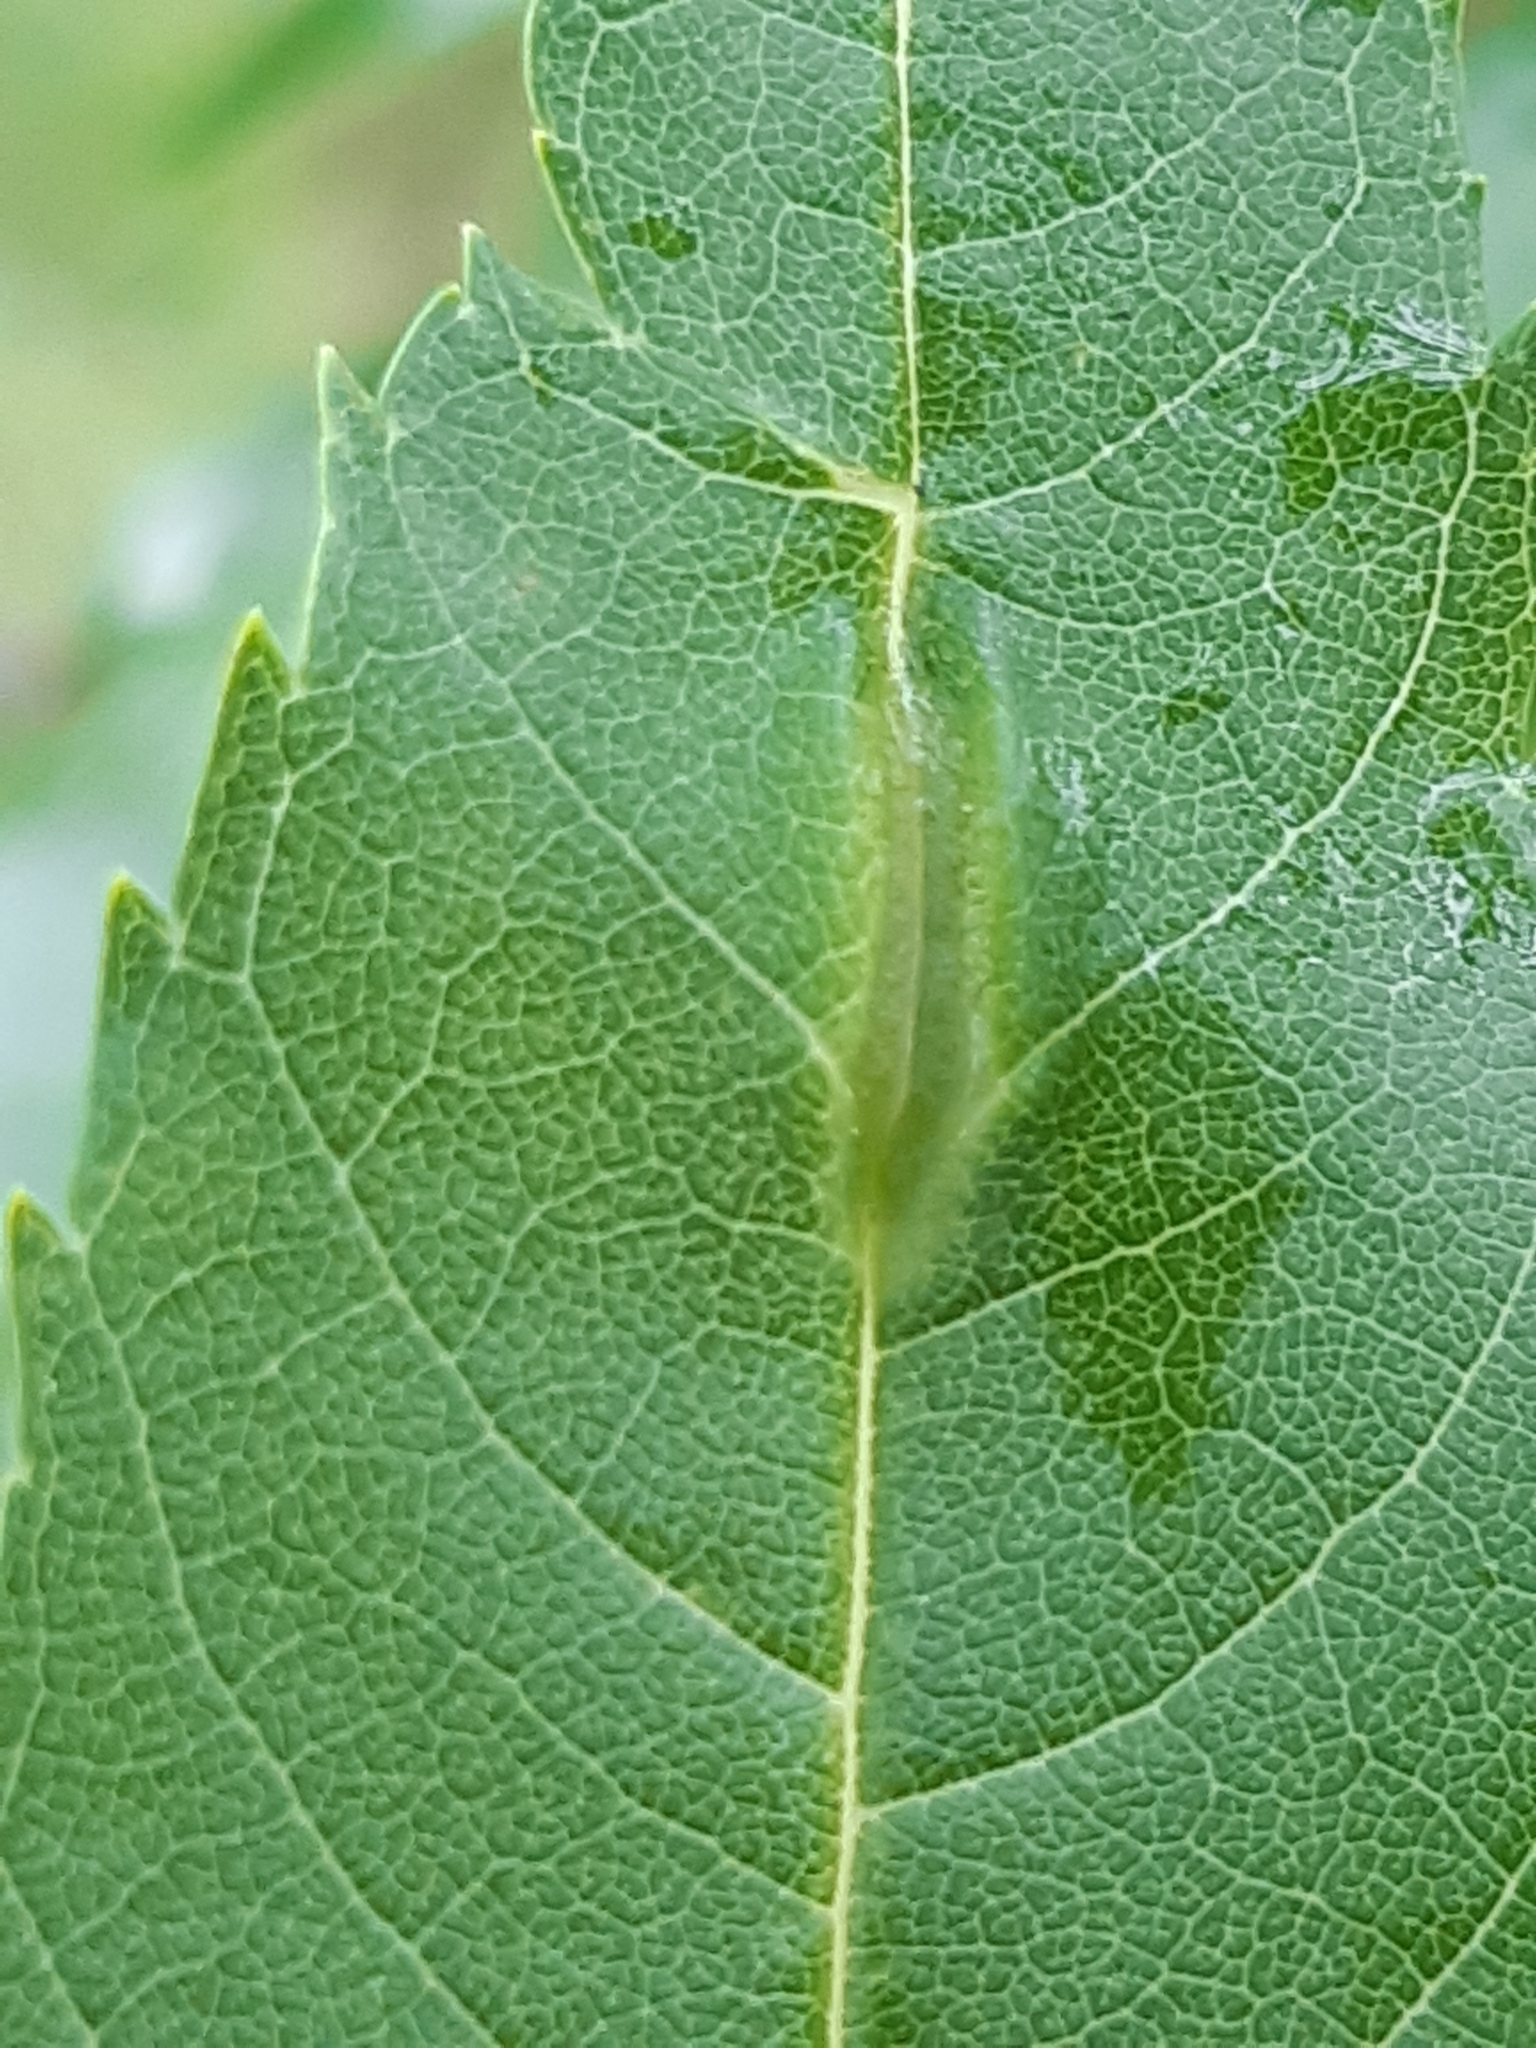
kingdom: Animalia
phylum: Arthropoda
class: Insecta
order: Diptera
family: Cecidomyiidae
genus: Dasineura
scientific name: Dasineura fraxini
